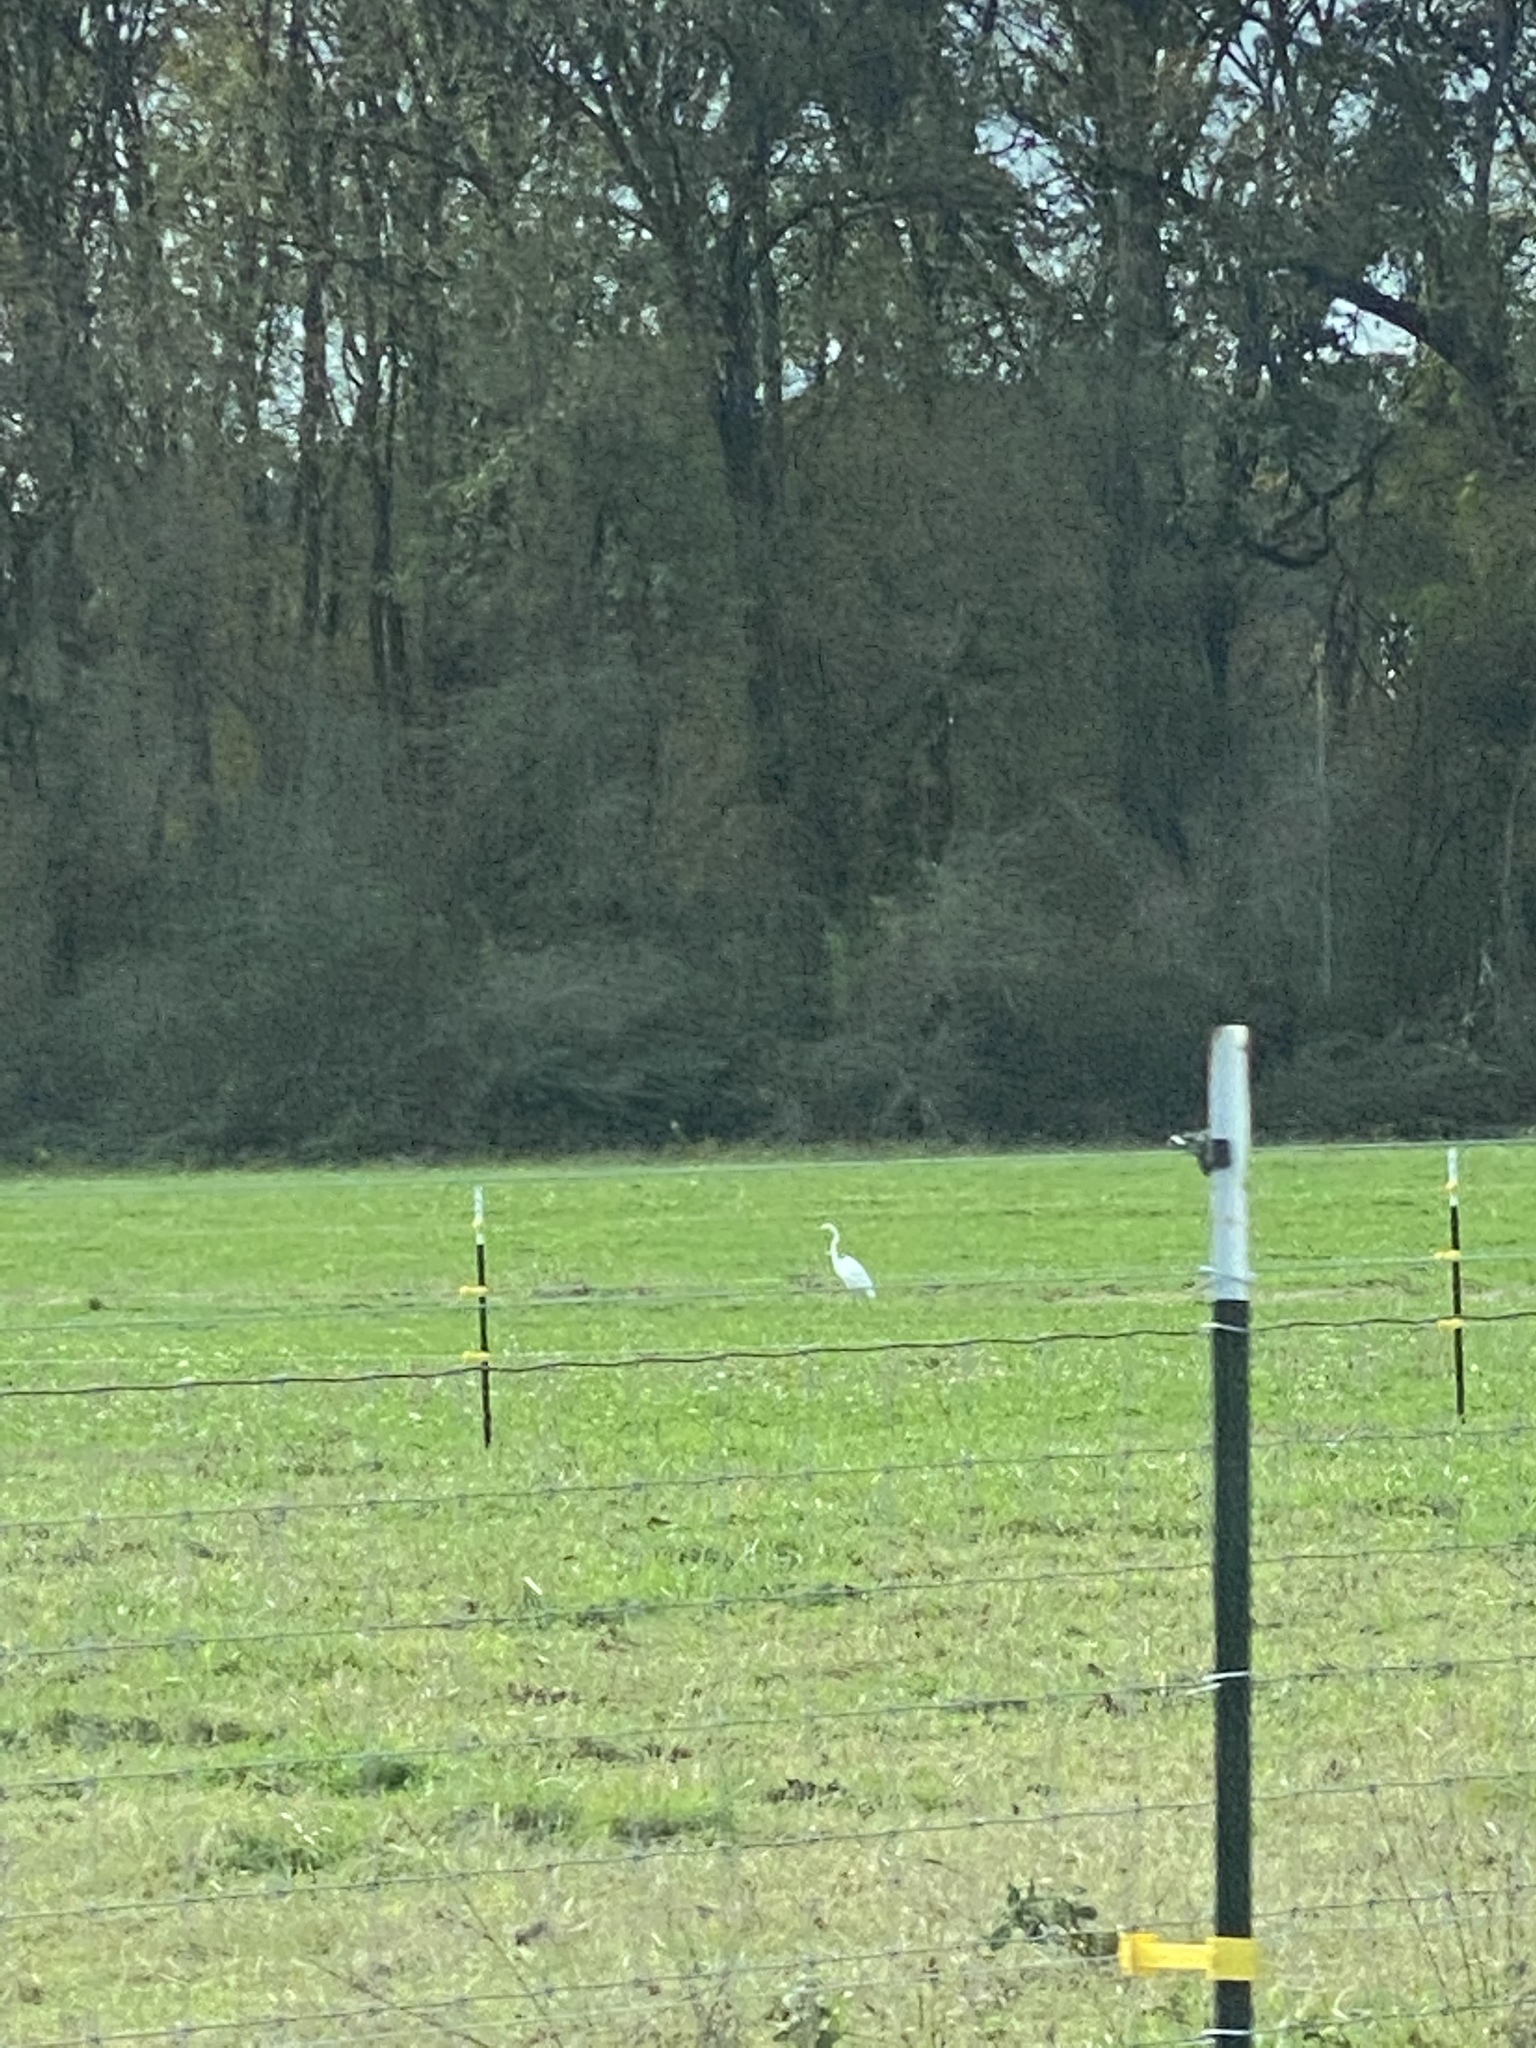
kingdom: Animalia
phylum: Chordata
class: Aves
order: Pelecaniformes
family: Ardeidae
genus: Ardea
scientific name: Ardea alba
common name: Great egret
